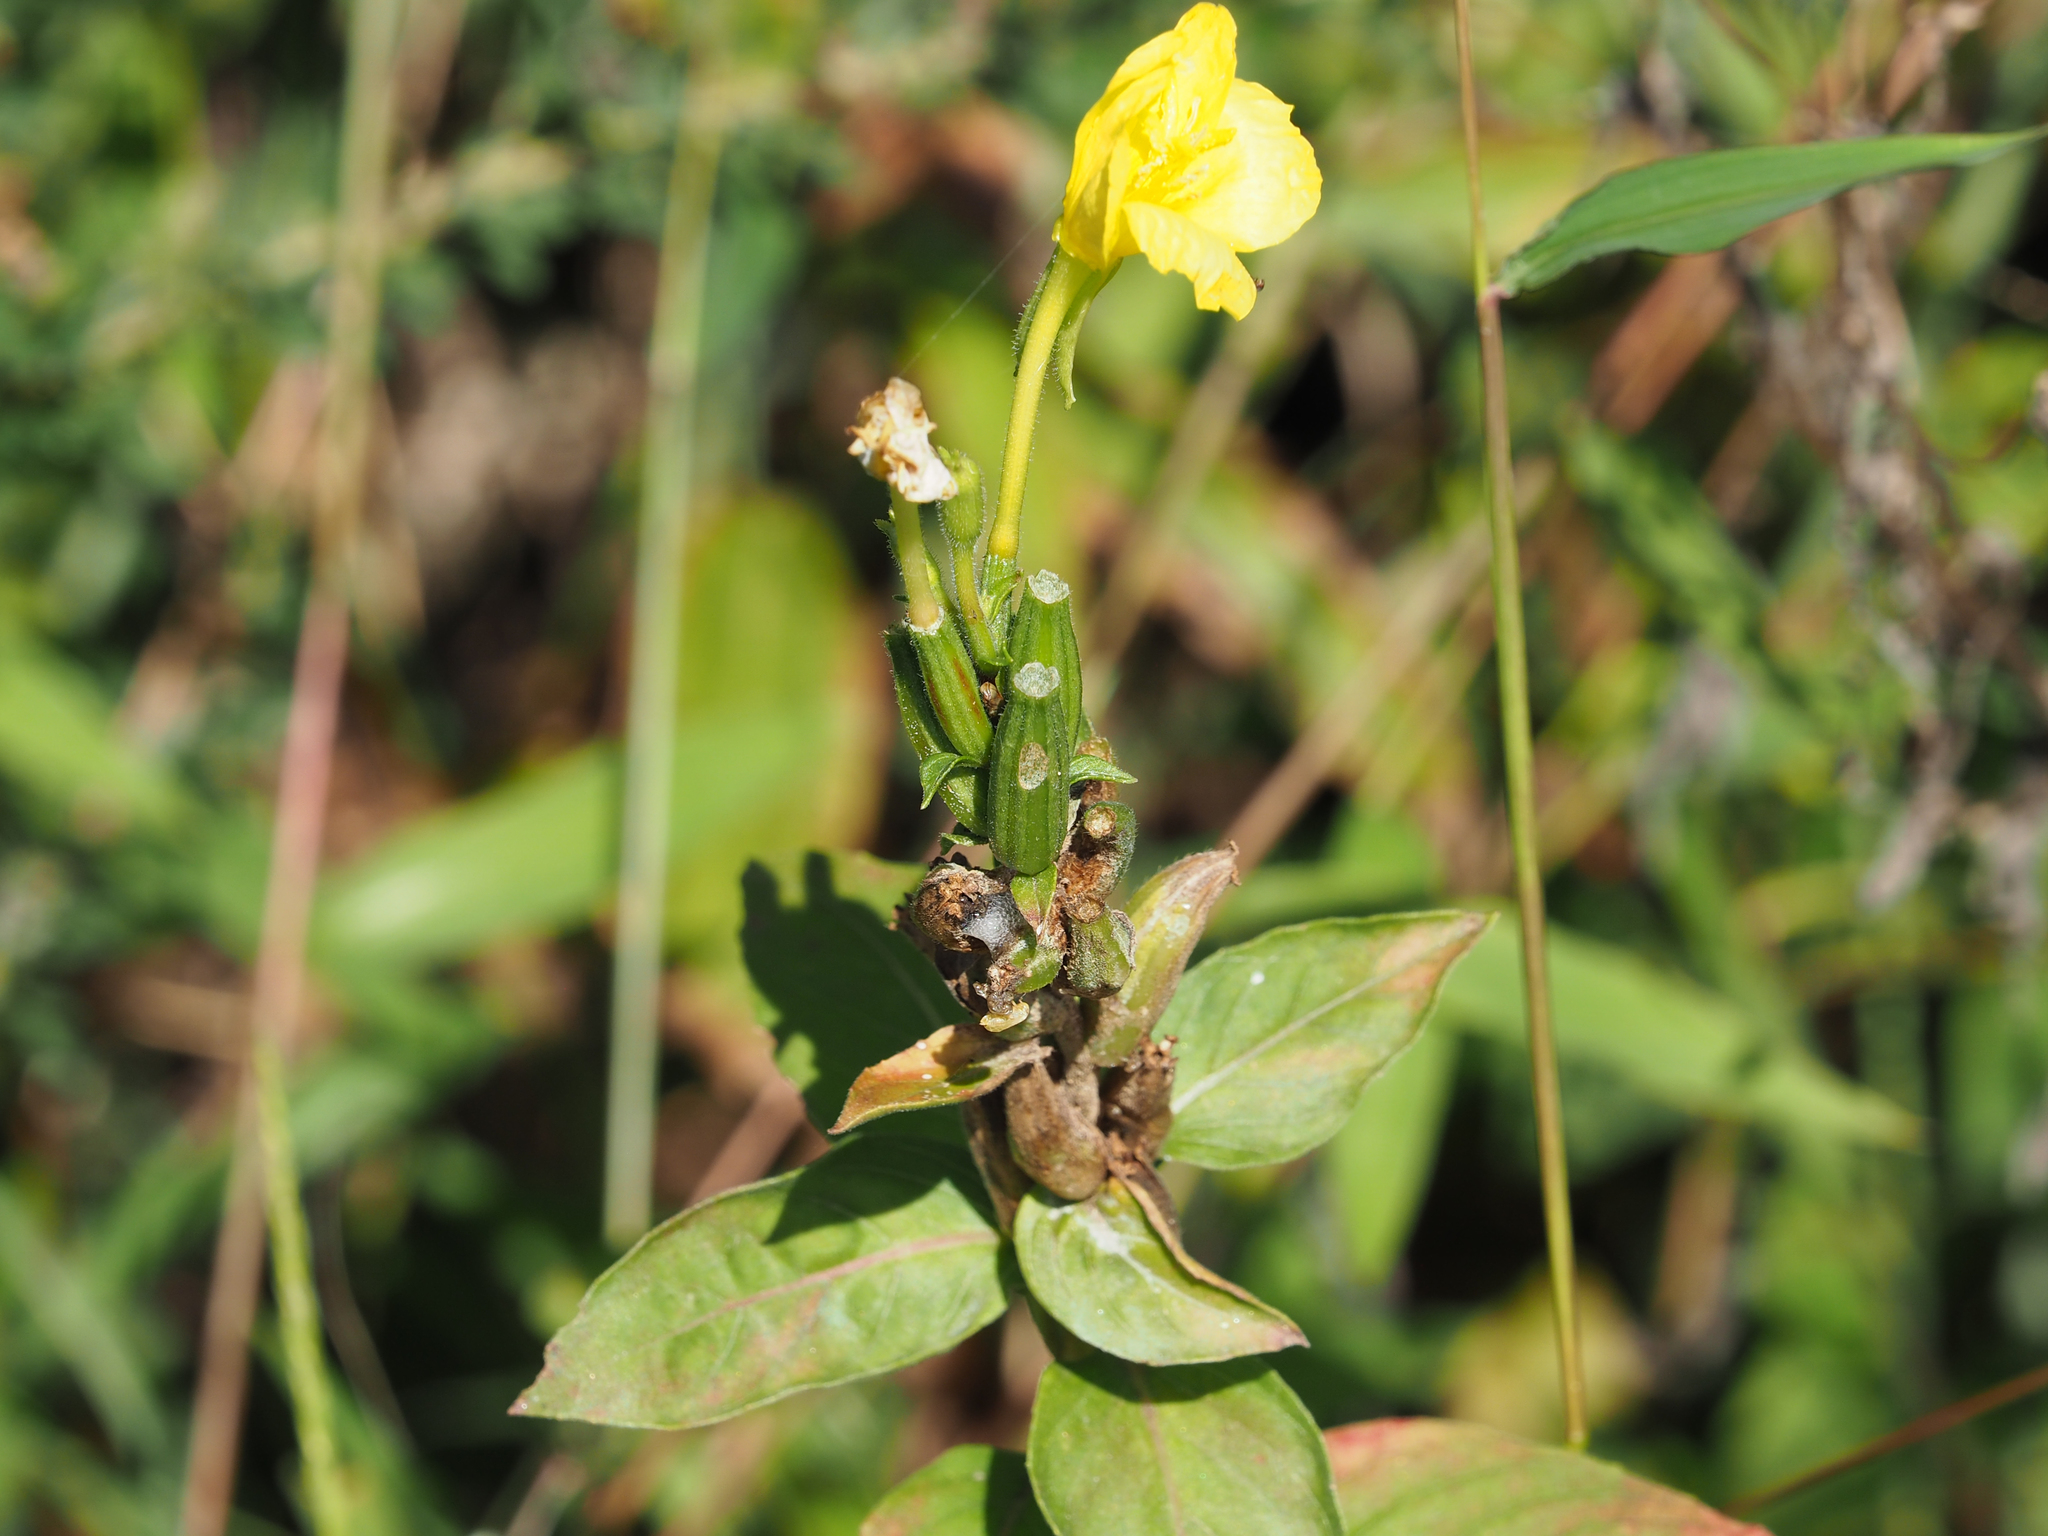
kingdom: Plantae
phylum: Tracheophyta
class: Magnoliopsida
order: Myrtales
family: Onagraceae
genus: Oenothera
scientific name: Oenothera biennis
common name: Common evening-primrose
